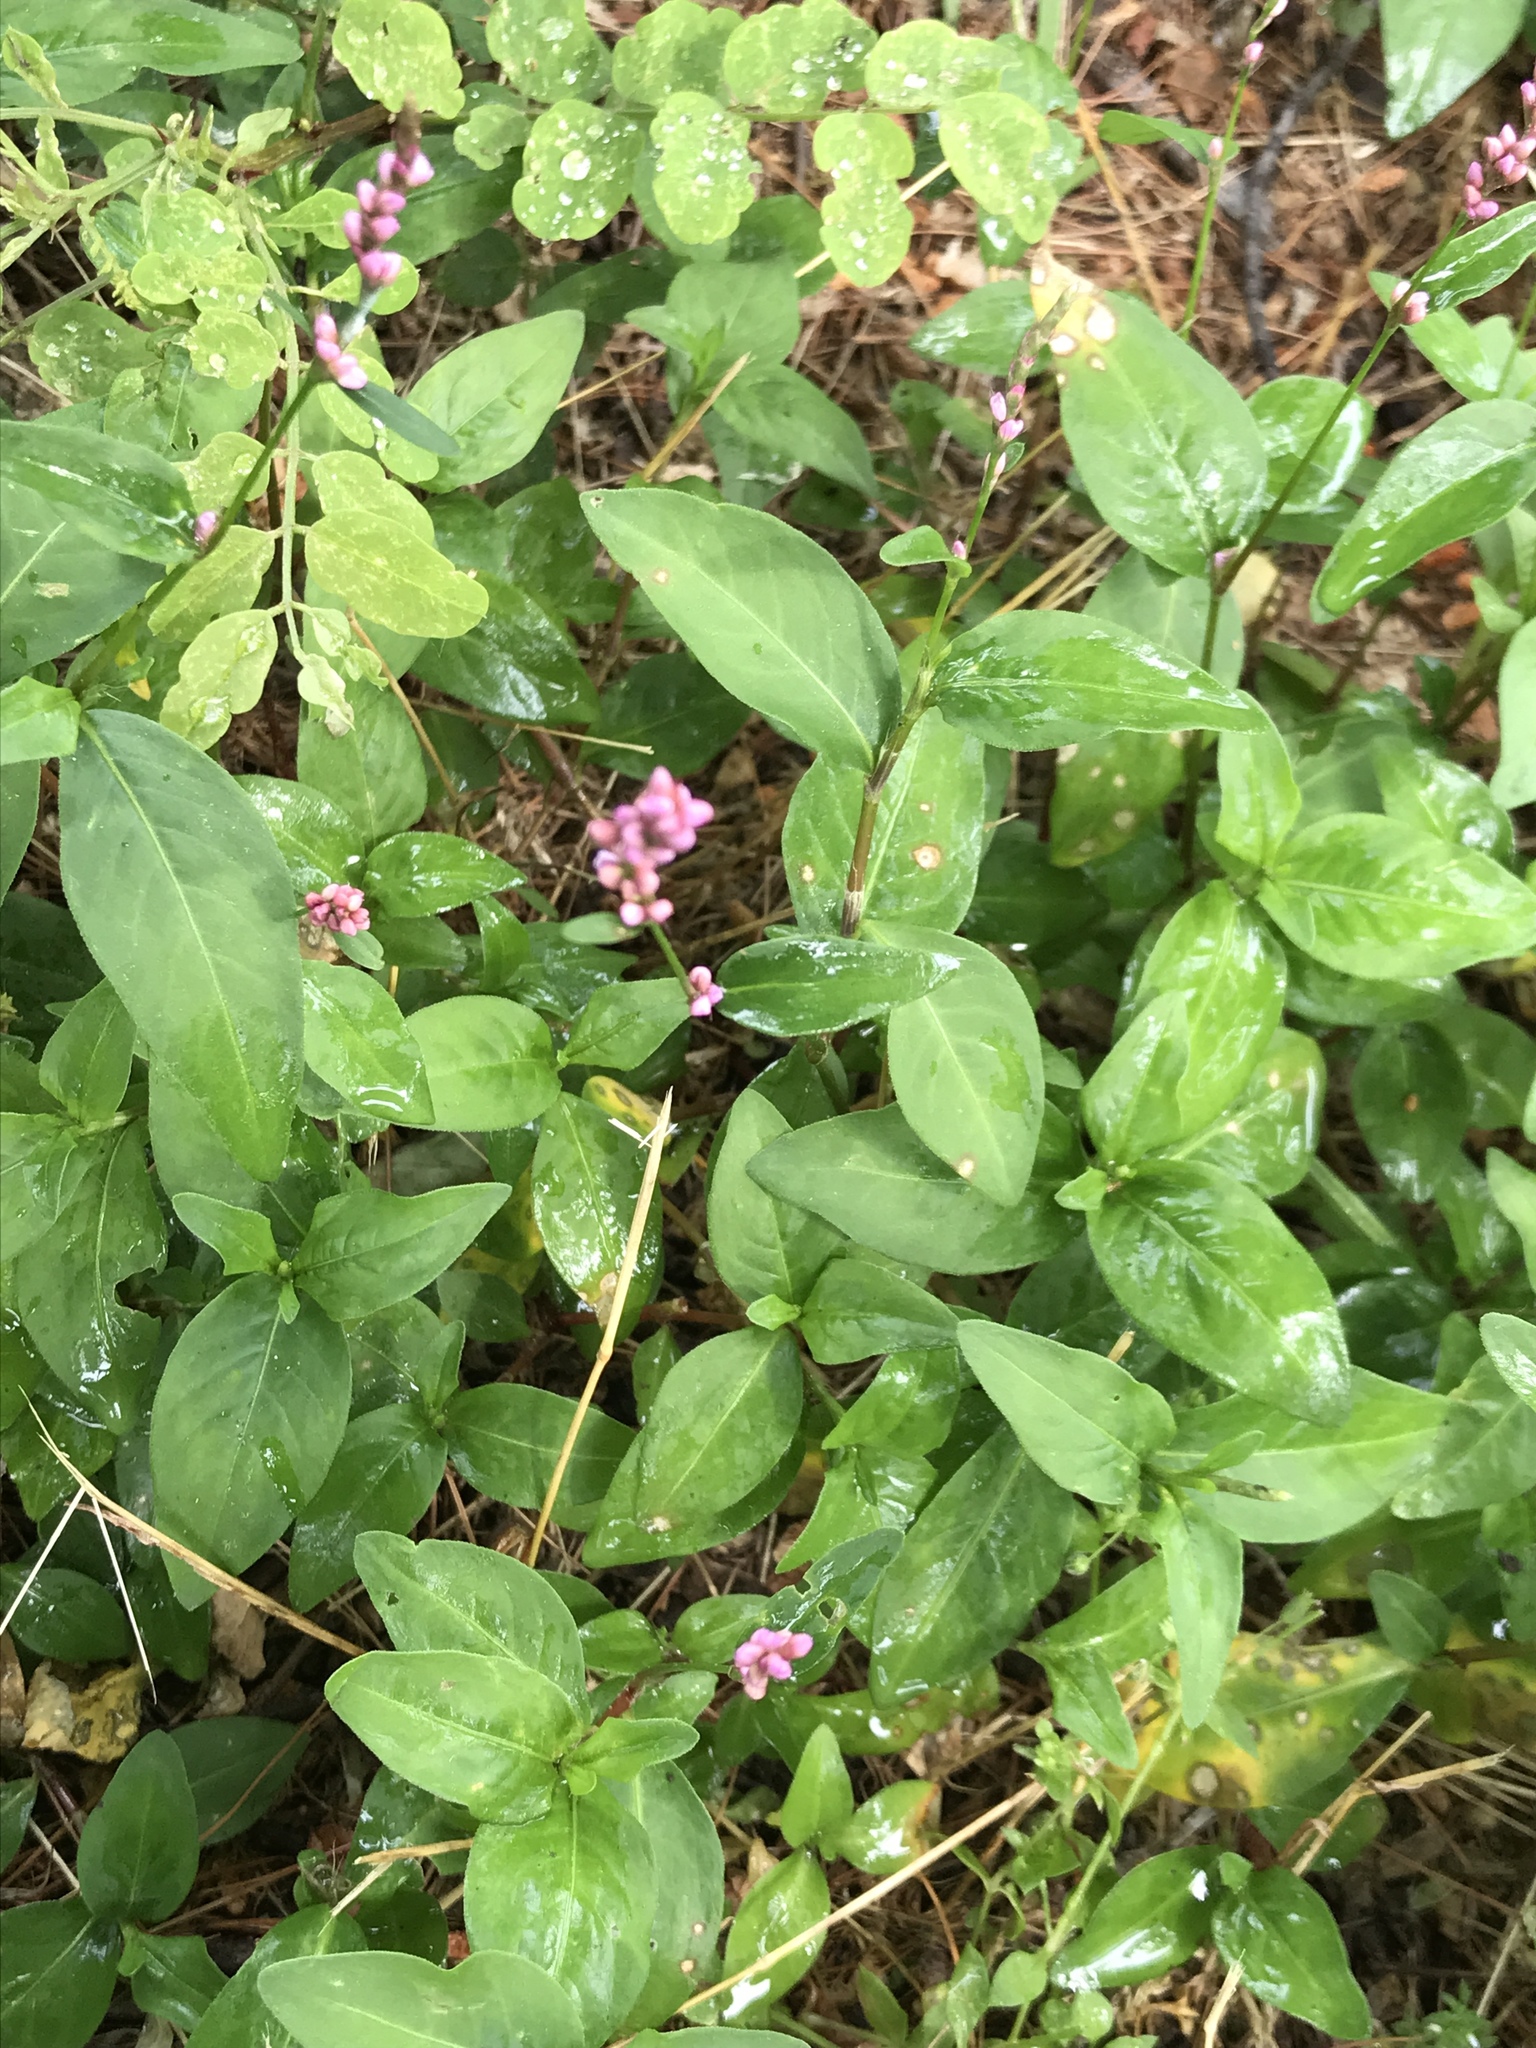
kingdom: Plantae
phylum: Tracheophyta
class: Magnoliopsida
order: Caryophyllales
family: Polygonaceae
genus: Persicaria
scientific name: Persicaria longiseta
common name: Bristly lady's-thumb
